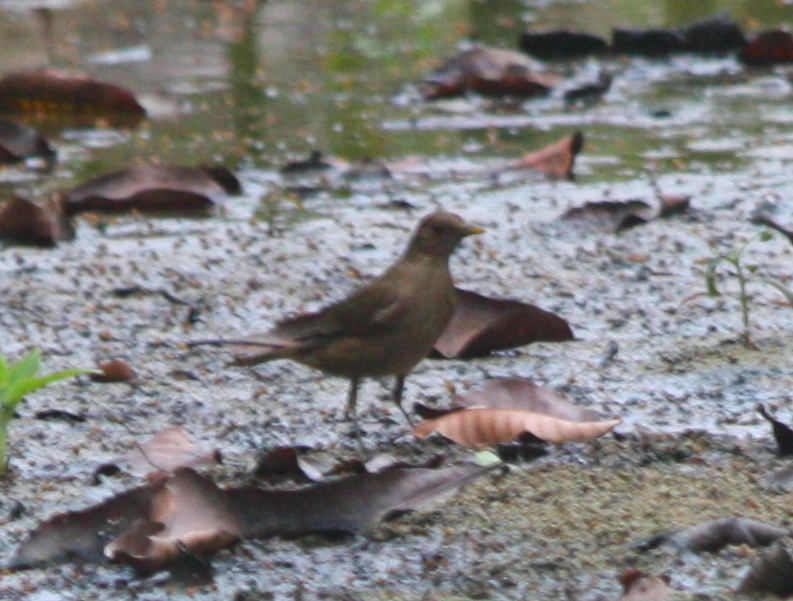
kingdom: Animalia
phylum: Chordata
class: Aves
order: Passeriformes
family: Turdidae
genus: Turdus
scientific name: Turdus grayi
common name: Clay-colored thrush
